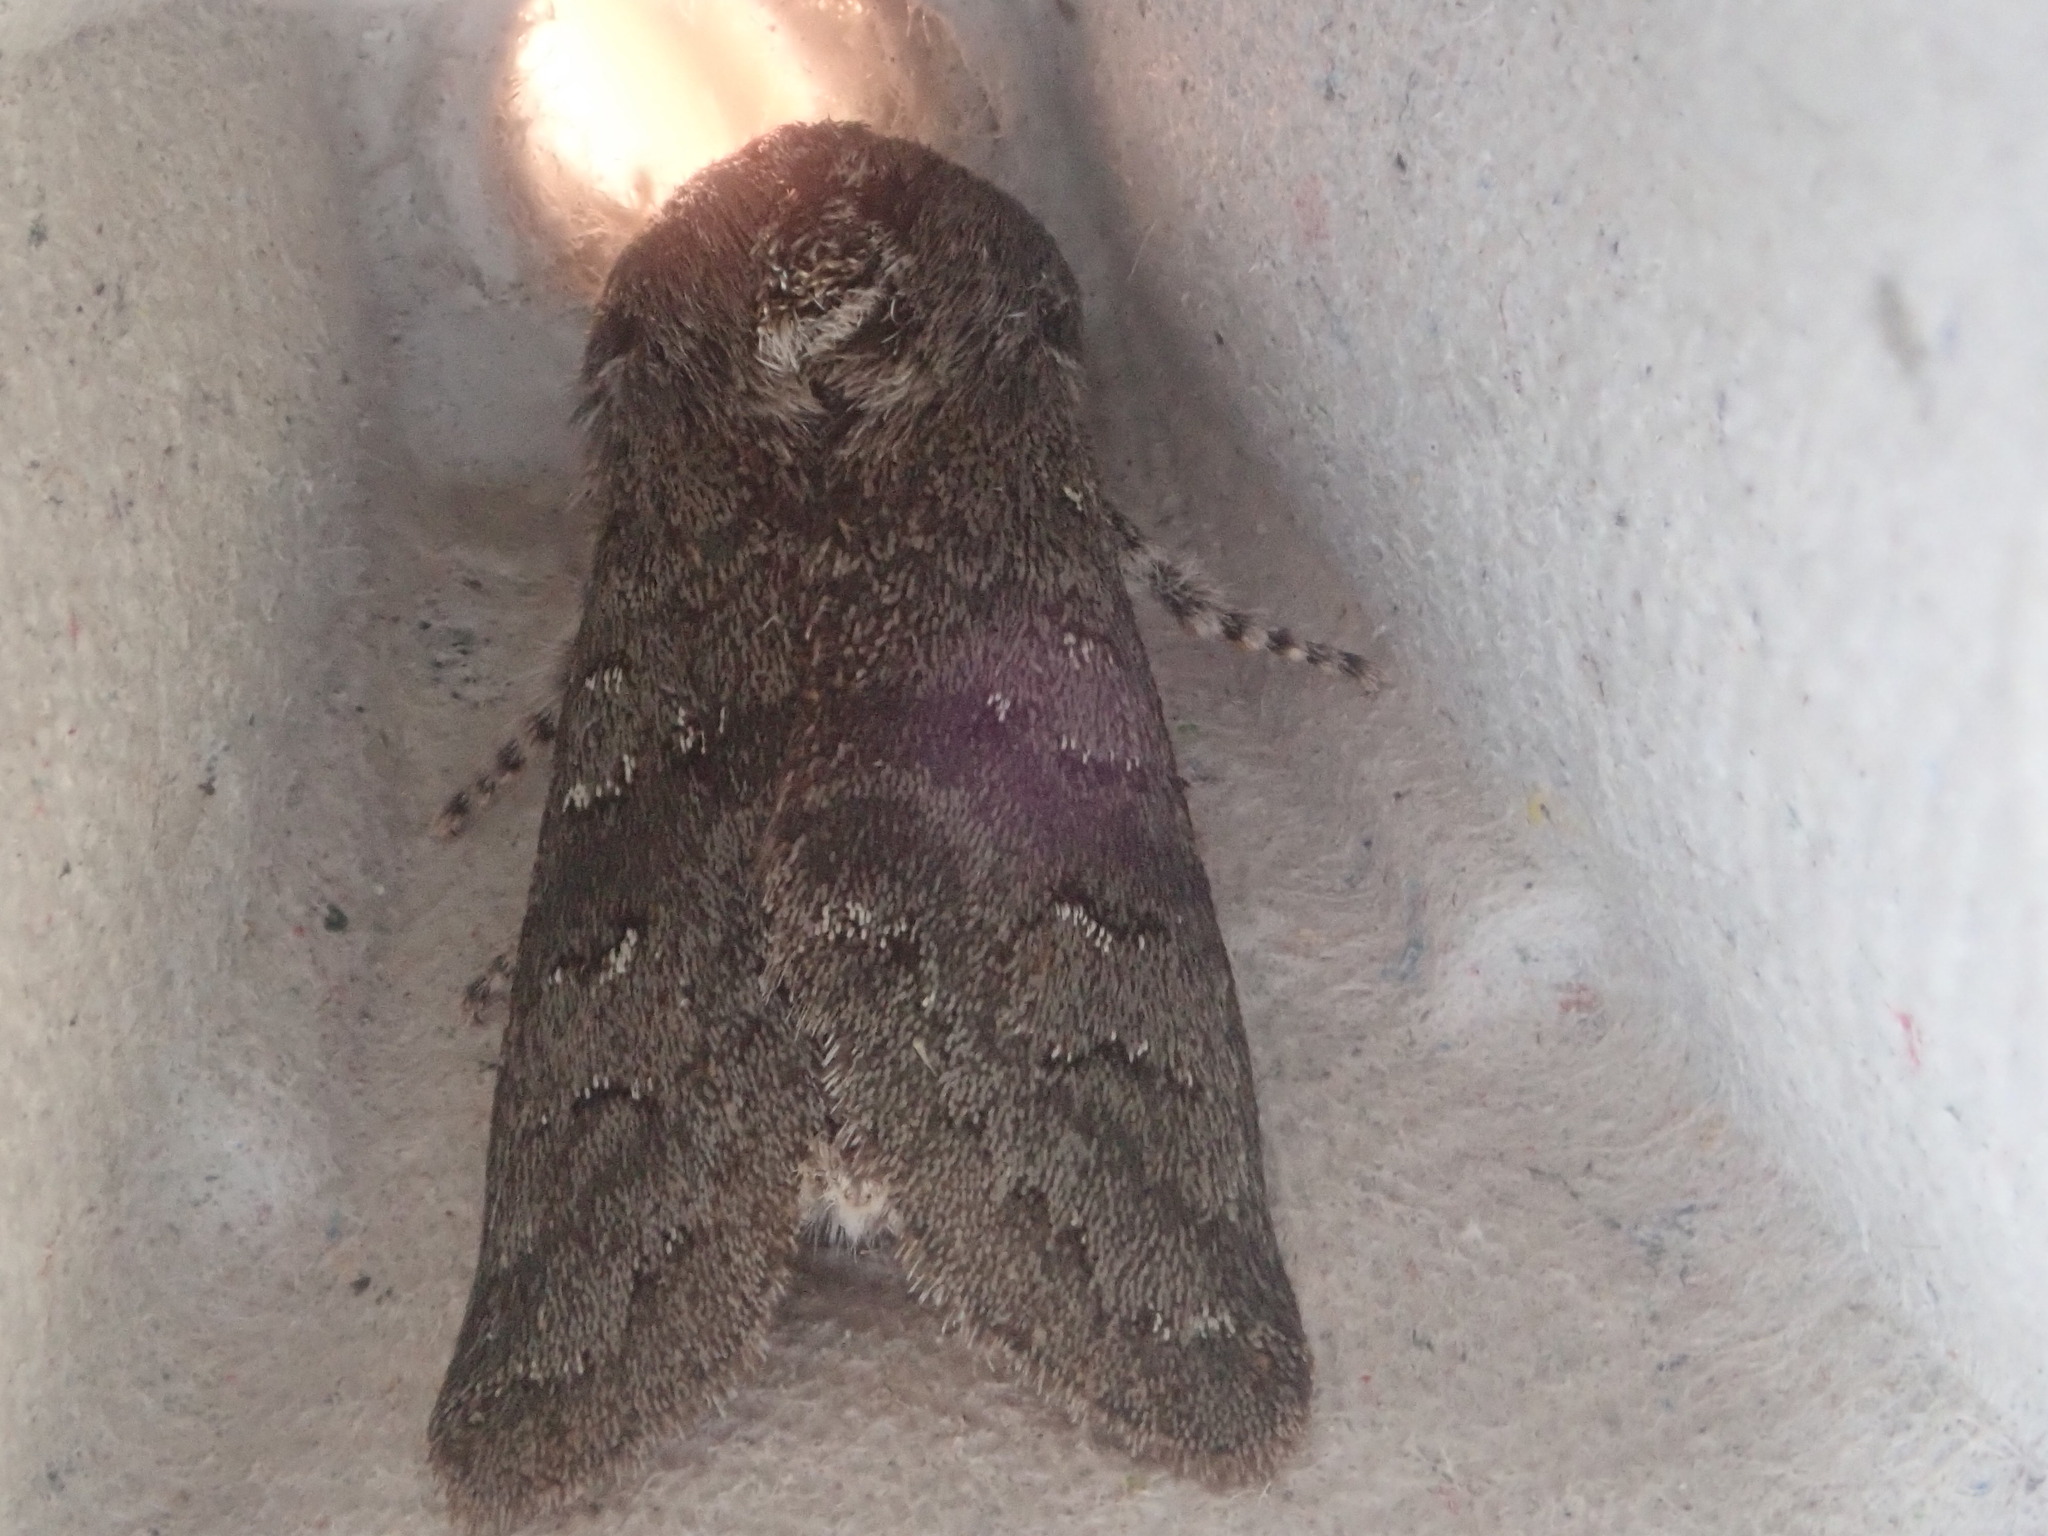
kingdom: Animalia
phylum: Arthropoda
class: Insecta
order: Lepidoptera
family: Noctuidae
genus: Psaphida
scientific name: Psaphida rolandi
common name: Roland's sallow
